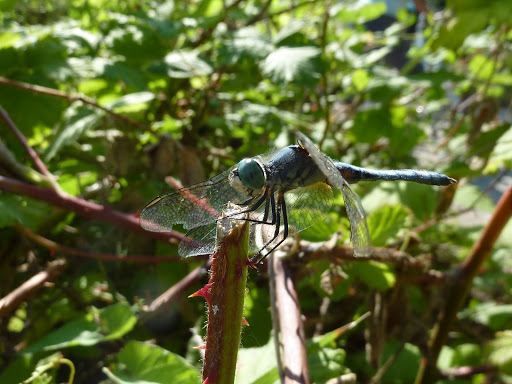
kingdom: Animalia
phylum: Arthropoda
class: Insecta
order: Odonata
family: Libellulidae
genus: Pachydiplax
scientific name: Pachydiplax longipennis
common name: Blue dasher
